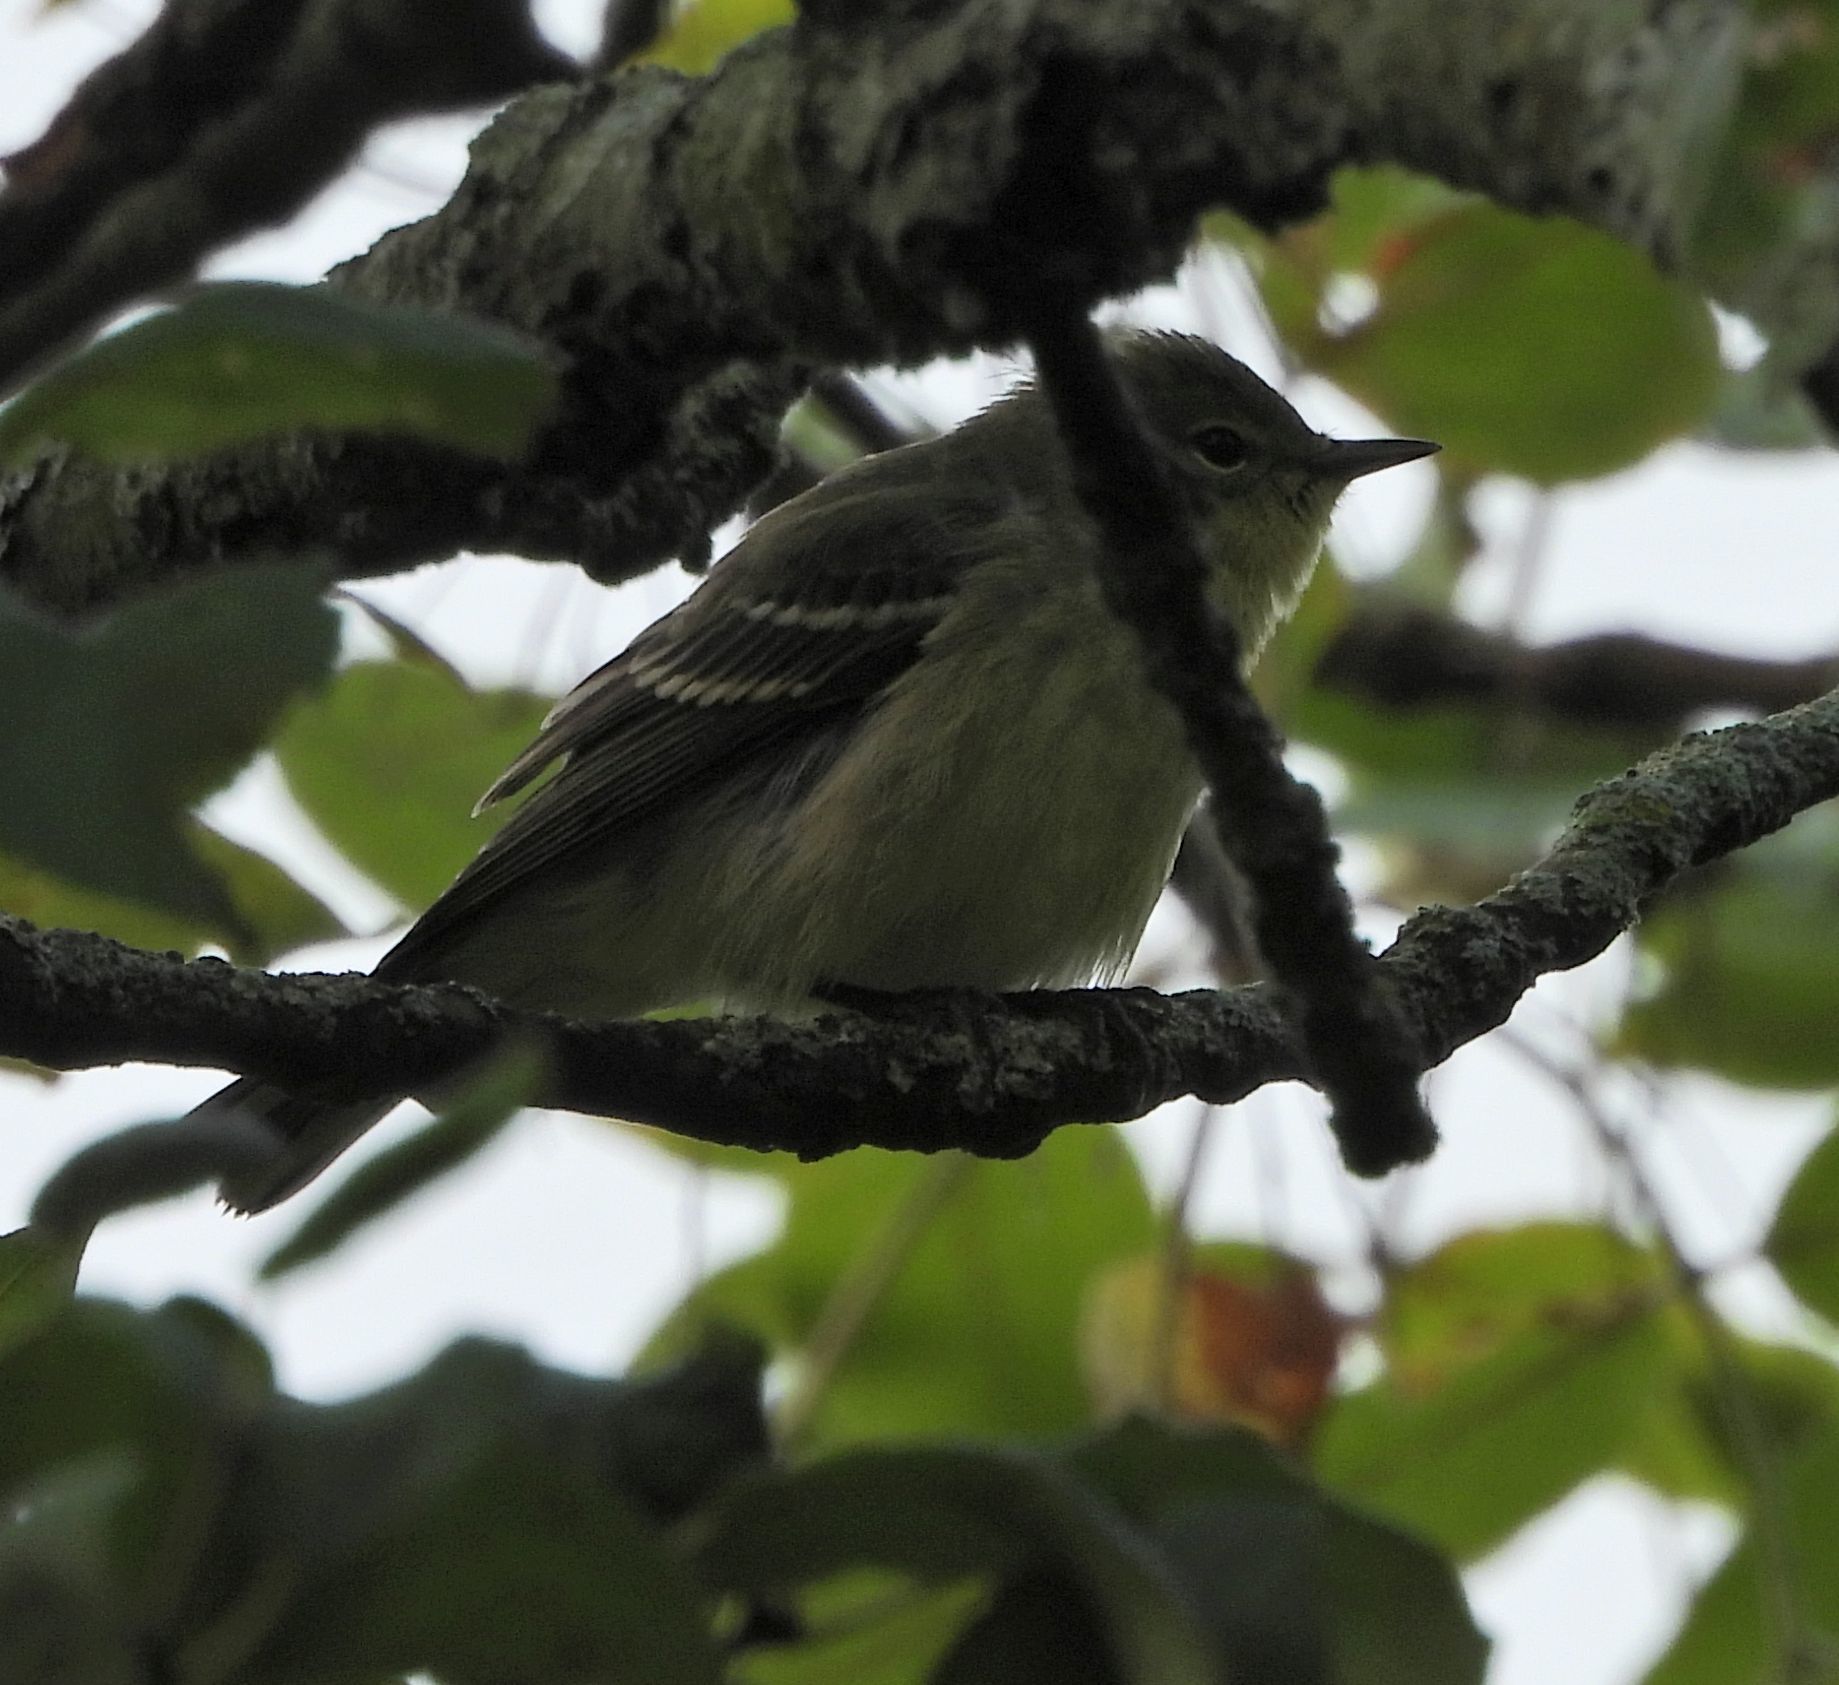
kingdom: Animalia
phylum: Chordata
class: Aves
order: Passeriformes
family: Parulidae
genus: Setophaga
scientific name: Setophaga coronata
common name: Myrtle warbler
